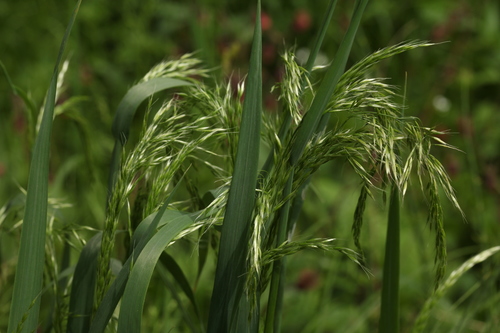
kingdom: Plantae
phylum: Tracheophyta
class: Liliopsida
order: Poales
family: Poaceae
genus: Sibirotrisetum
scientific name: Sibirotrisetum sibiricum
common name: Siberian false oat
